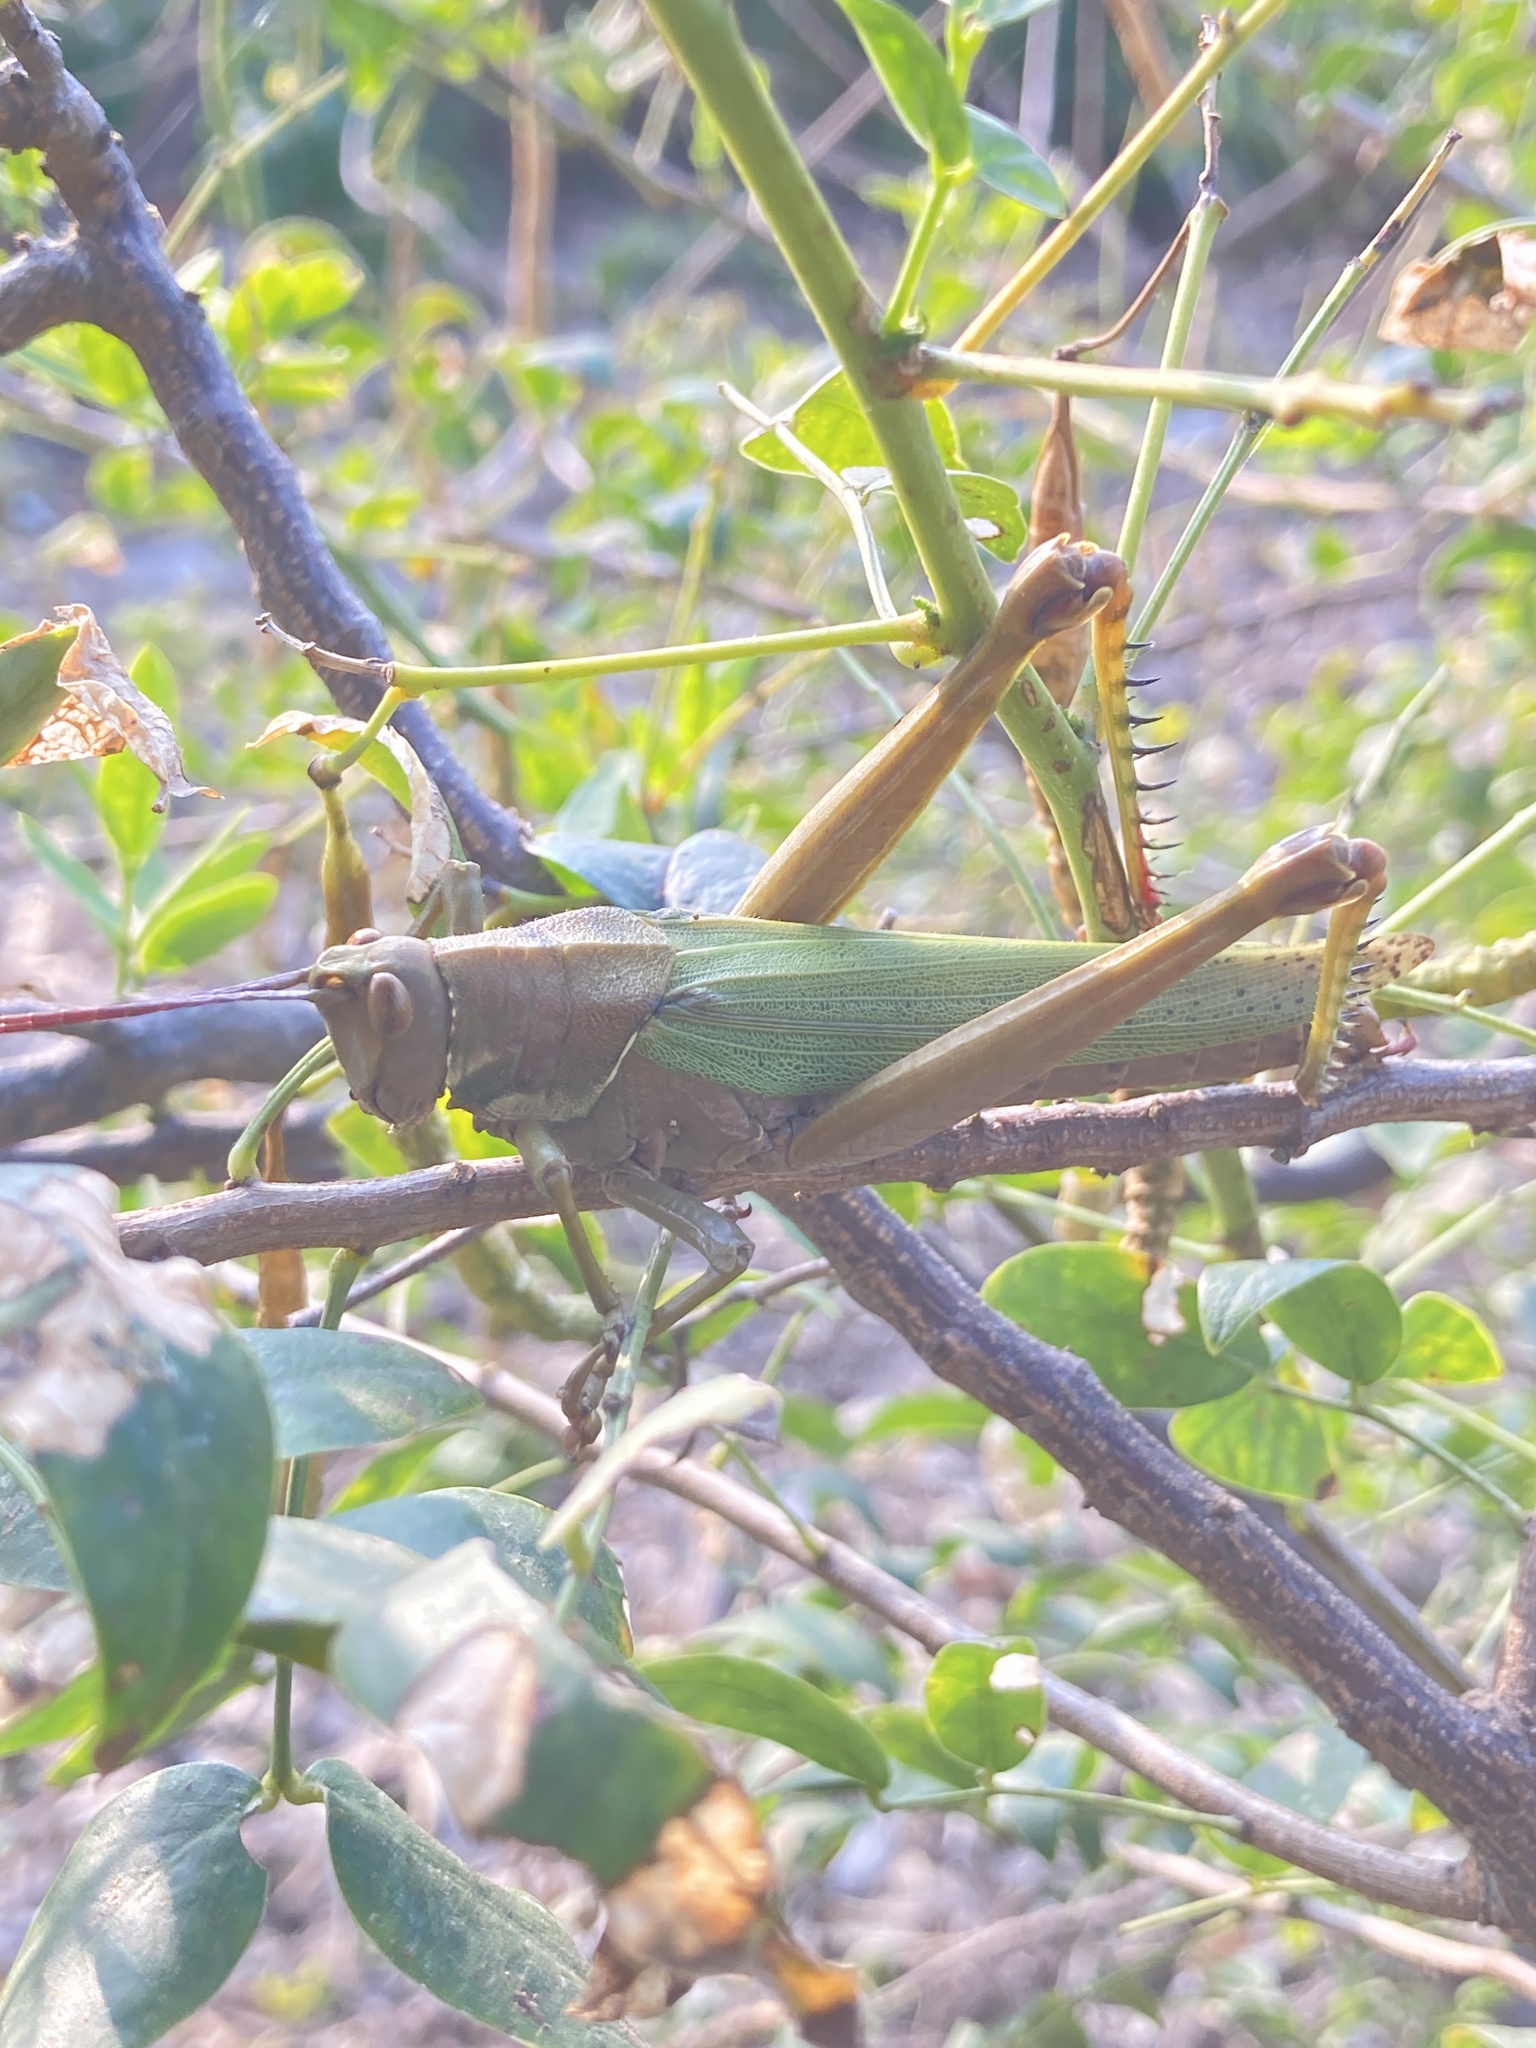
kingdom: Animalia
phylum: Arthropoda
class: Insecta
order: Orthoptera
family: Romaleidae
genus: Coryacris
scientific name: Coryacris angustipennis
